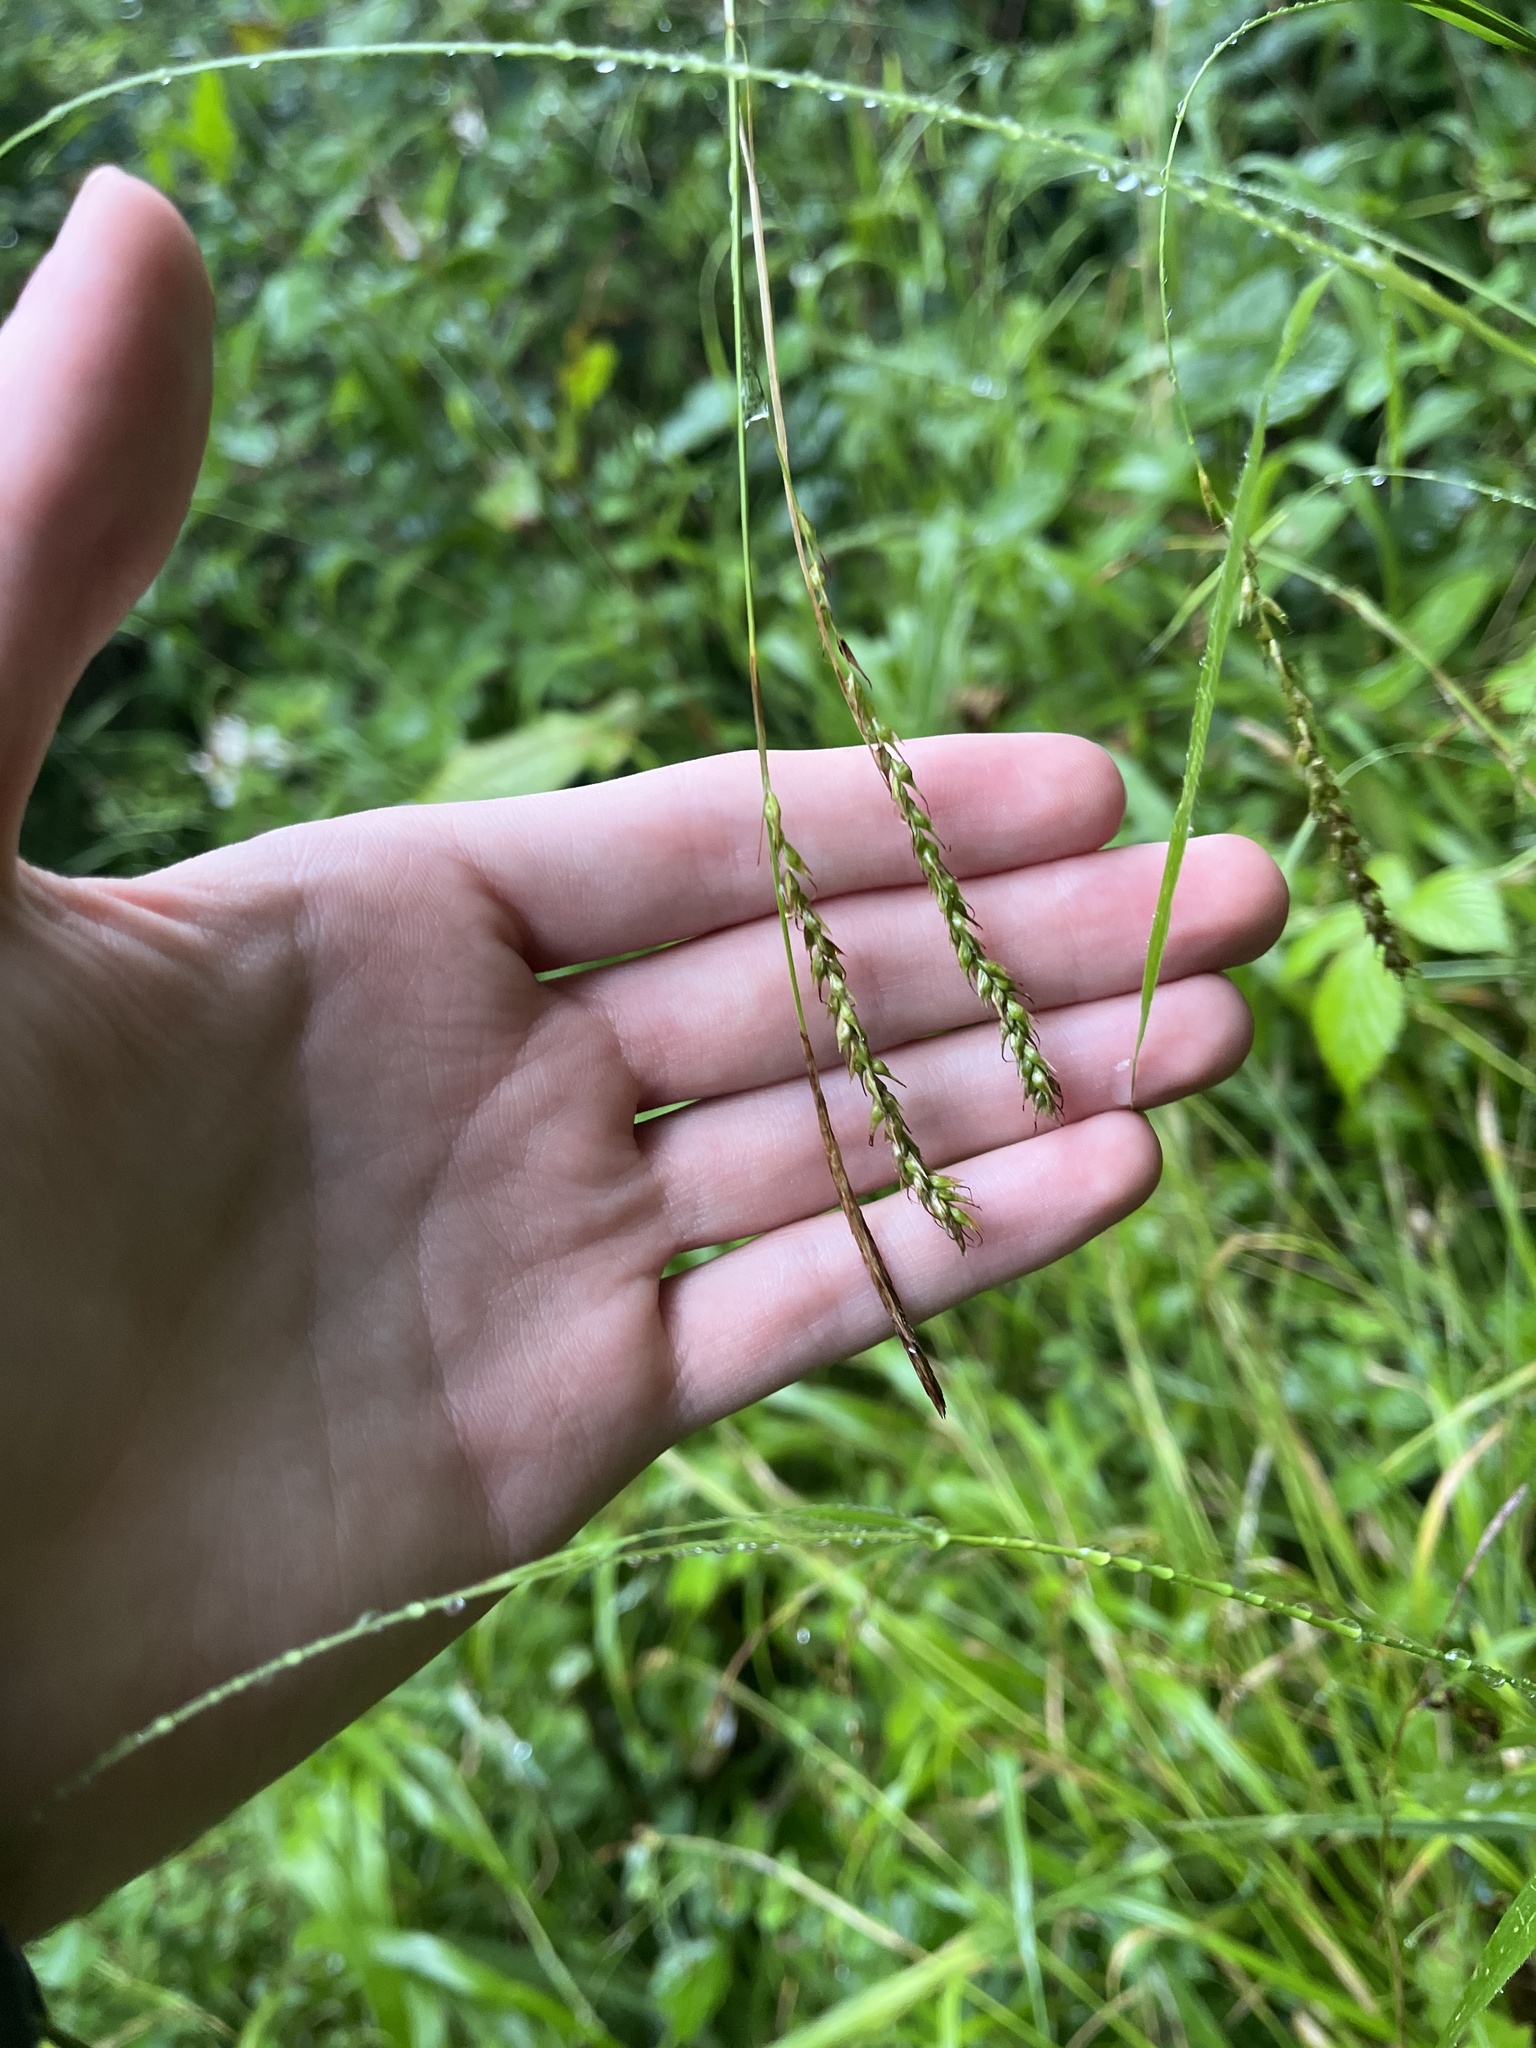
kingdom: Plantae
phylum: Tracheophyta
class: Liliopsida
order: Poales
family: Cyperaceae
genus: Carex
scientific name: Carex sylvatica
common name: Wood-sedge
